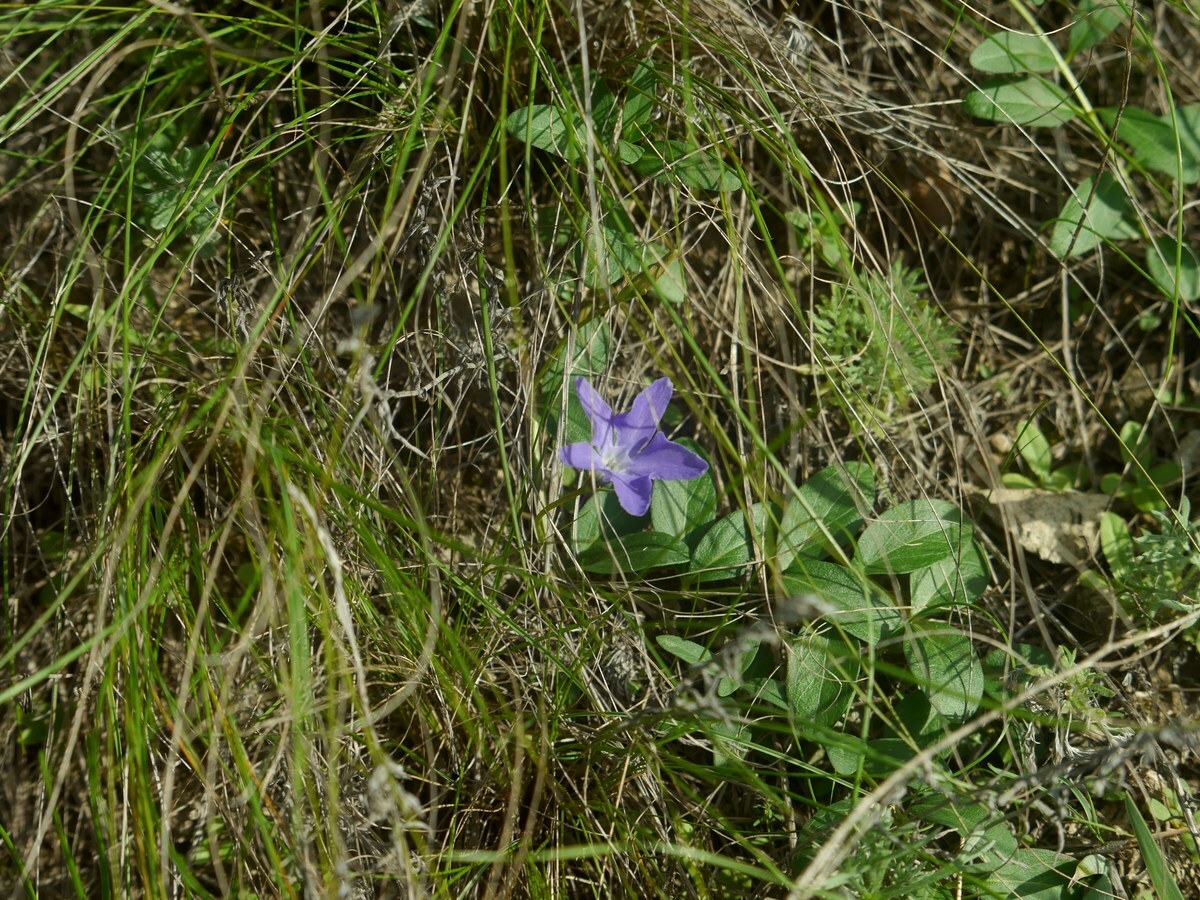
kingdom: Plantae
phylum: Tracheophyta
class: Magnoliopsida
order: Gentianales
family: Apocynaceae
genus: Vinca
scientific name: Vinca herbacea
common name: Herbaceous periwinkle
